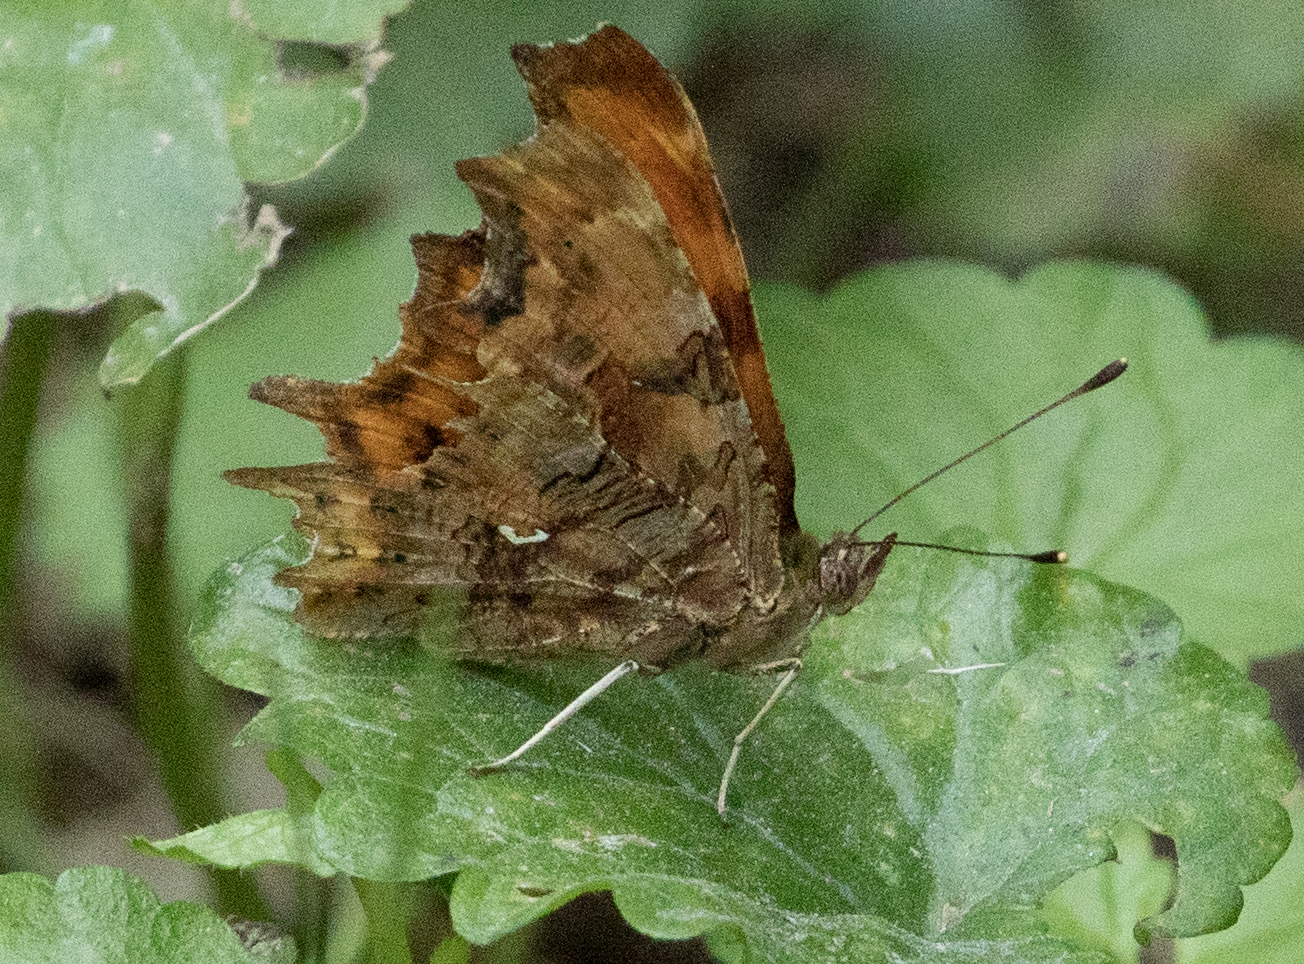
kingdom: Animalia
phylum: Arthropoda
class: Insecta
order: Lepidoptera
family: Nymphalidae
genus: Polygonia
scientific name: Polygonia c-album
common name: Comma
